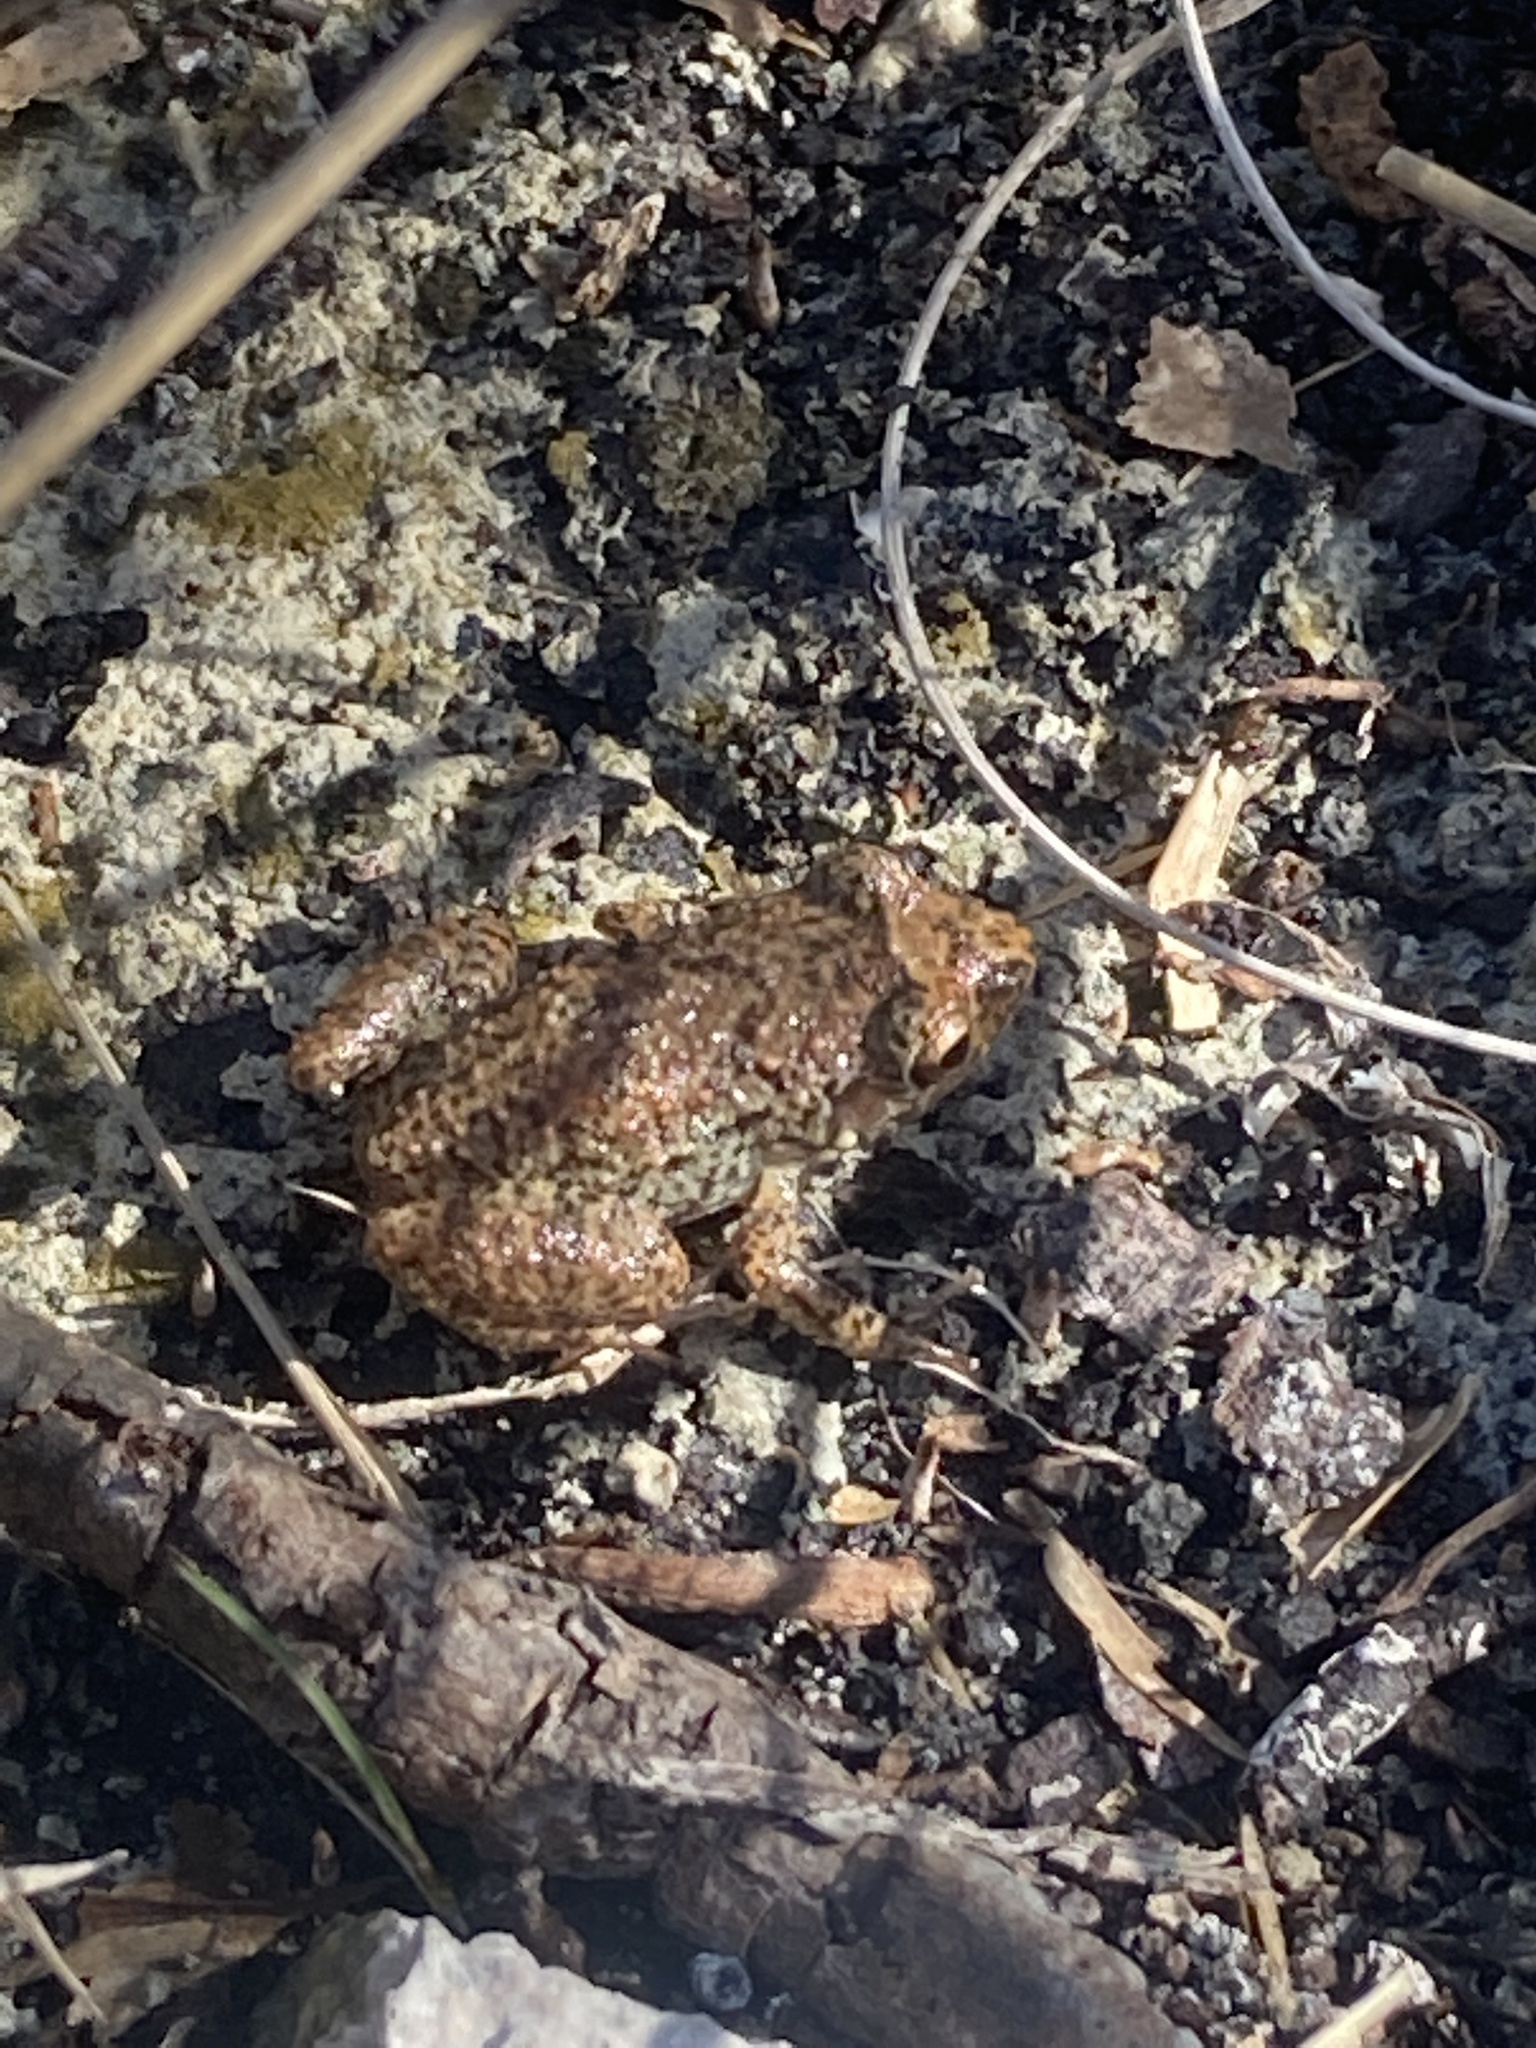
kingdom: Animalia
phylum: Chordata
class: Amphibia
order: Anura
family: Eleutherodactylidae
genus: Eleutherodactylus
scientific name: Eleutherodactylus planirostris
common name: Greenhouse frog
